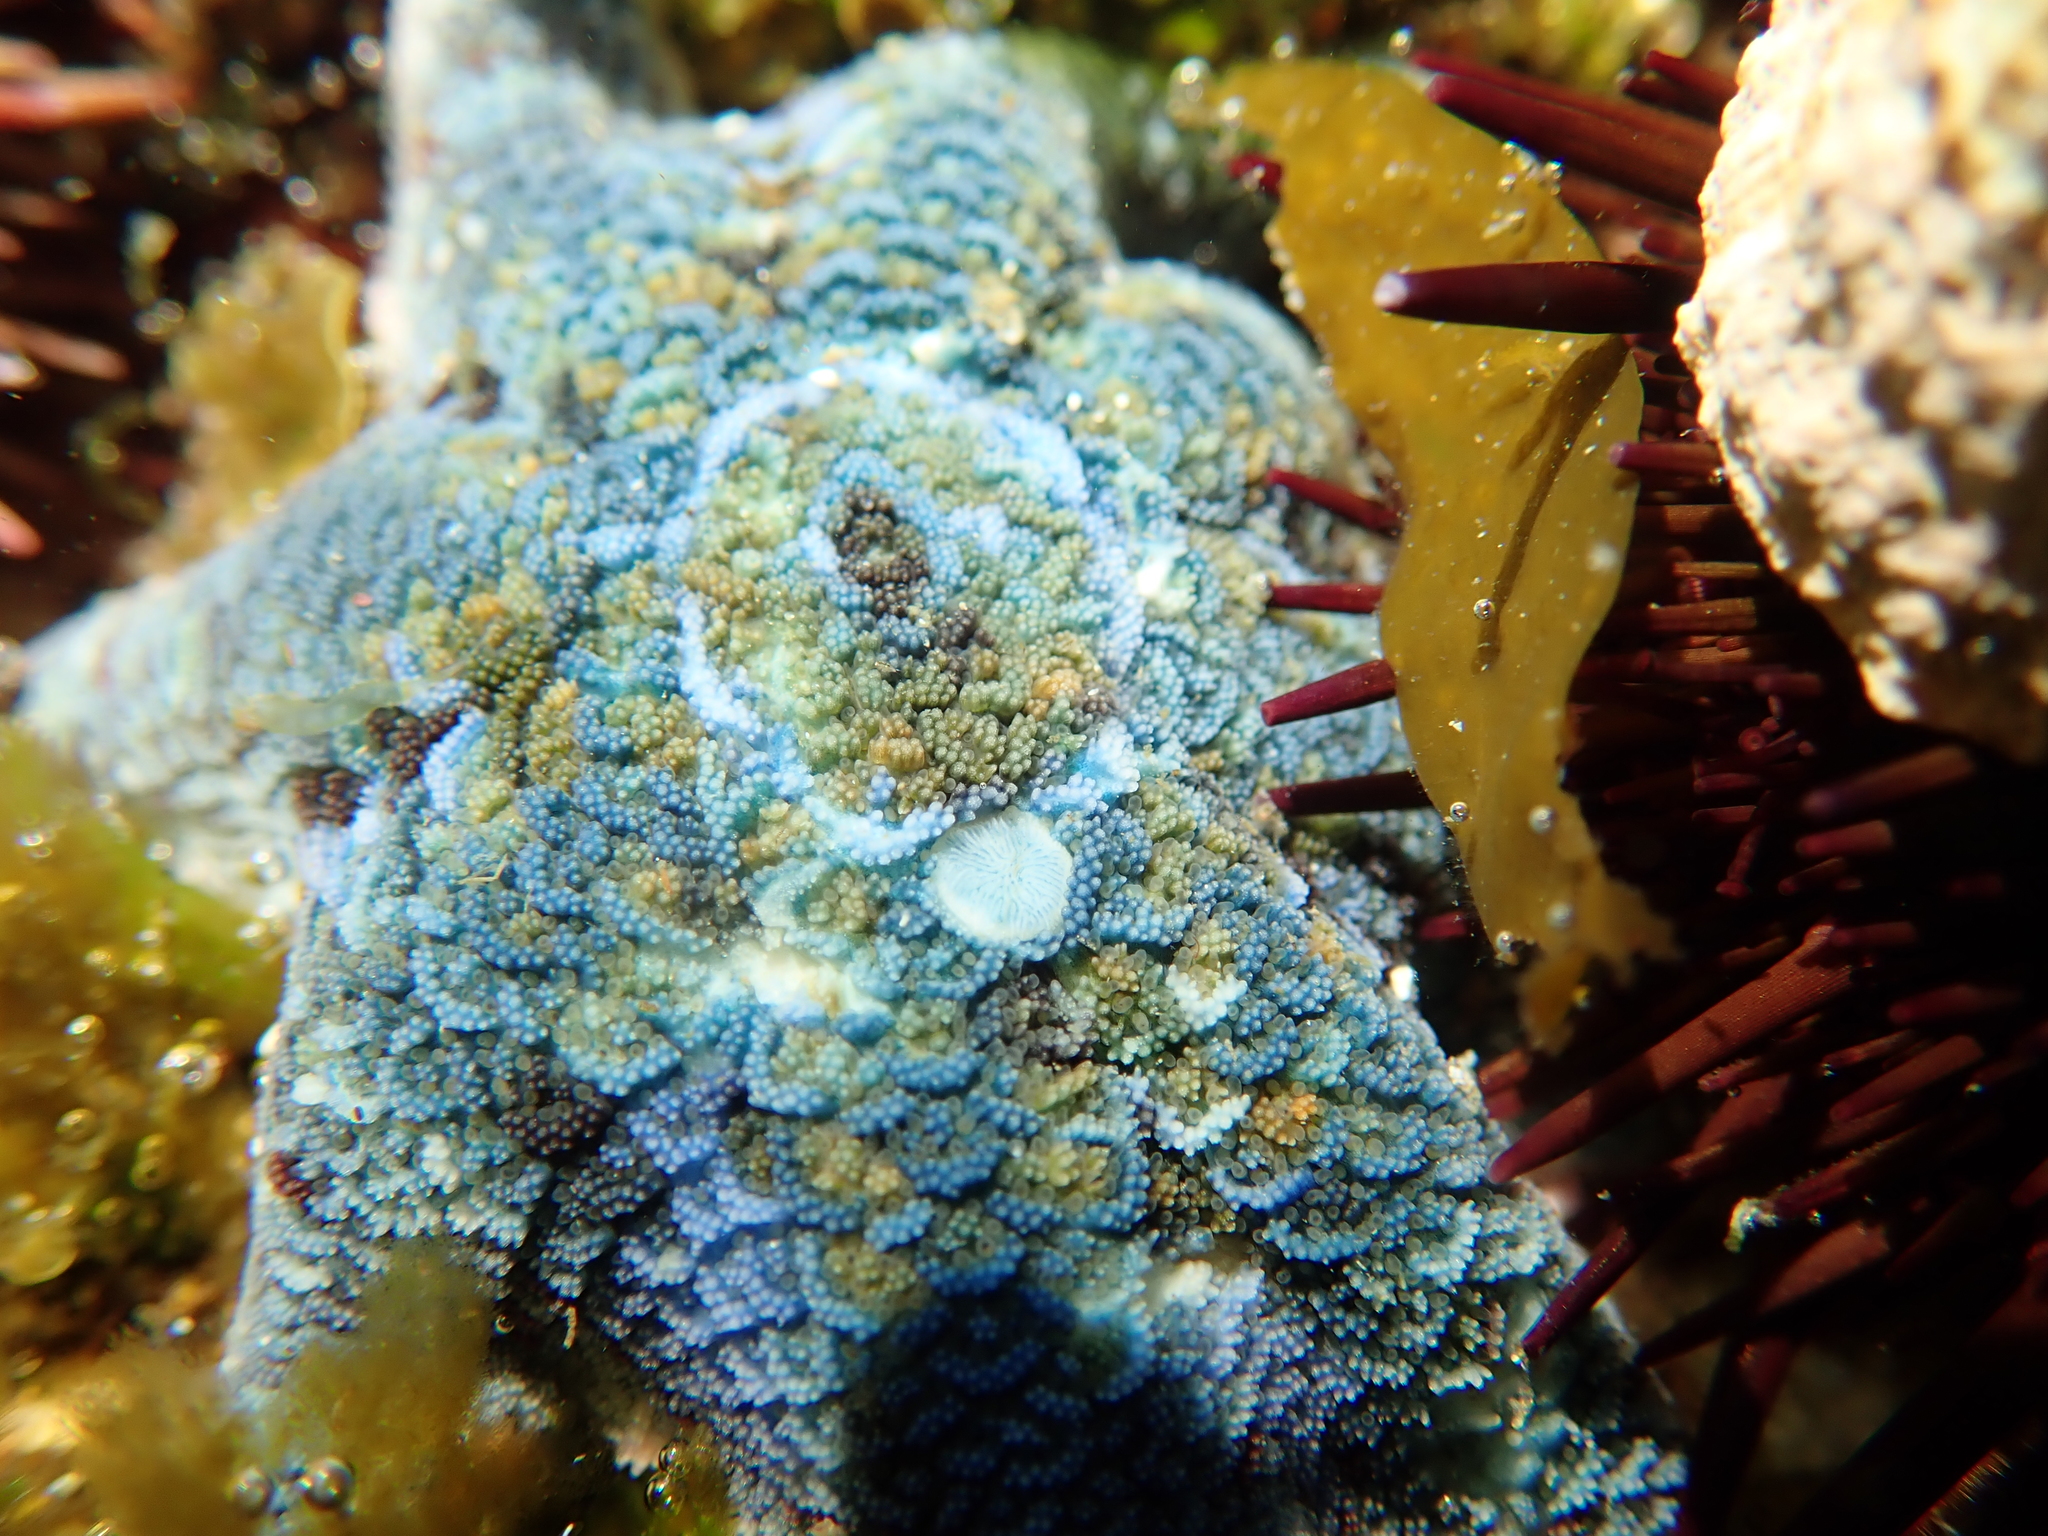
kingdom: Animalia
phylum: Echinodermata
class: Asteroidea
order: Valvatida
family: Asterinidae
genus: Meridiastra
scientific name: Meridiastra calcar
